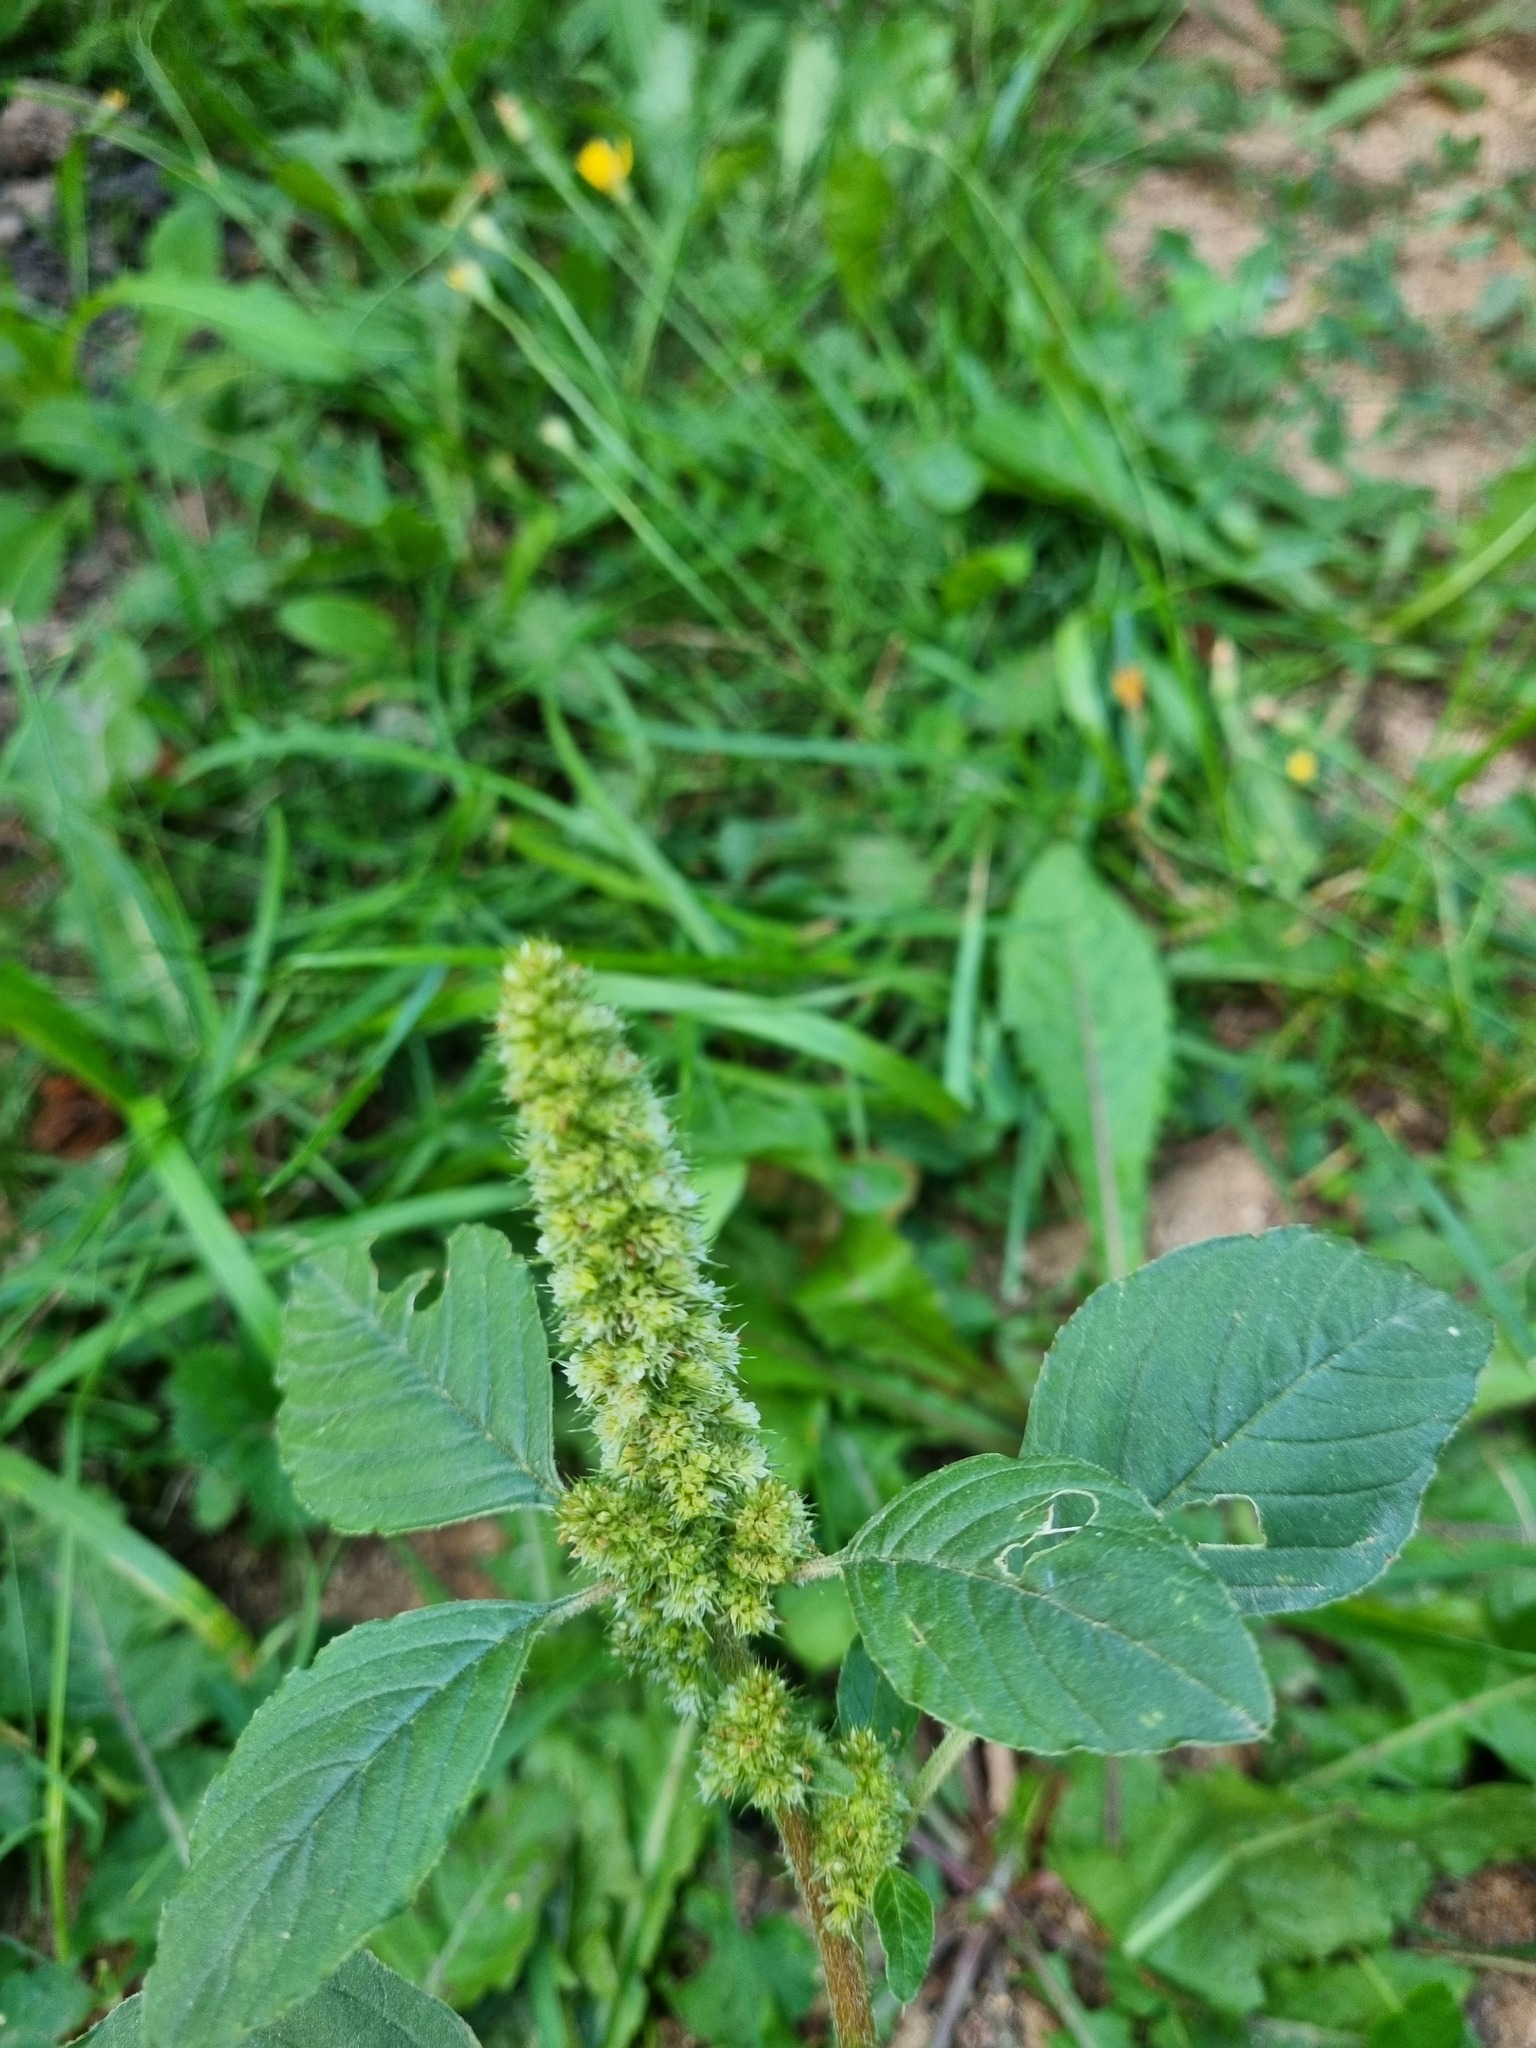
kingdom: Plantae
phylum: Tracheophyta
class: Magnoliopsida
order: Caryophyllales
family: Amaranthaceae
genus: Amaranthus
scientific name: Amaranthus retroflexus
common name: Redroot amaranth
